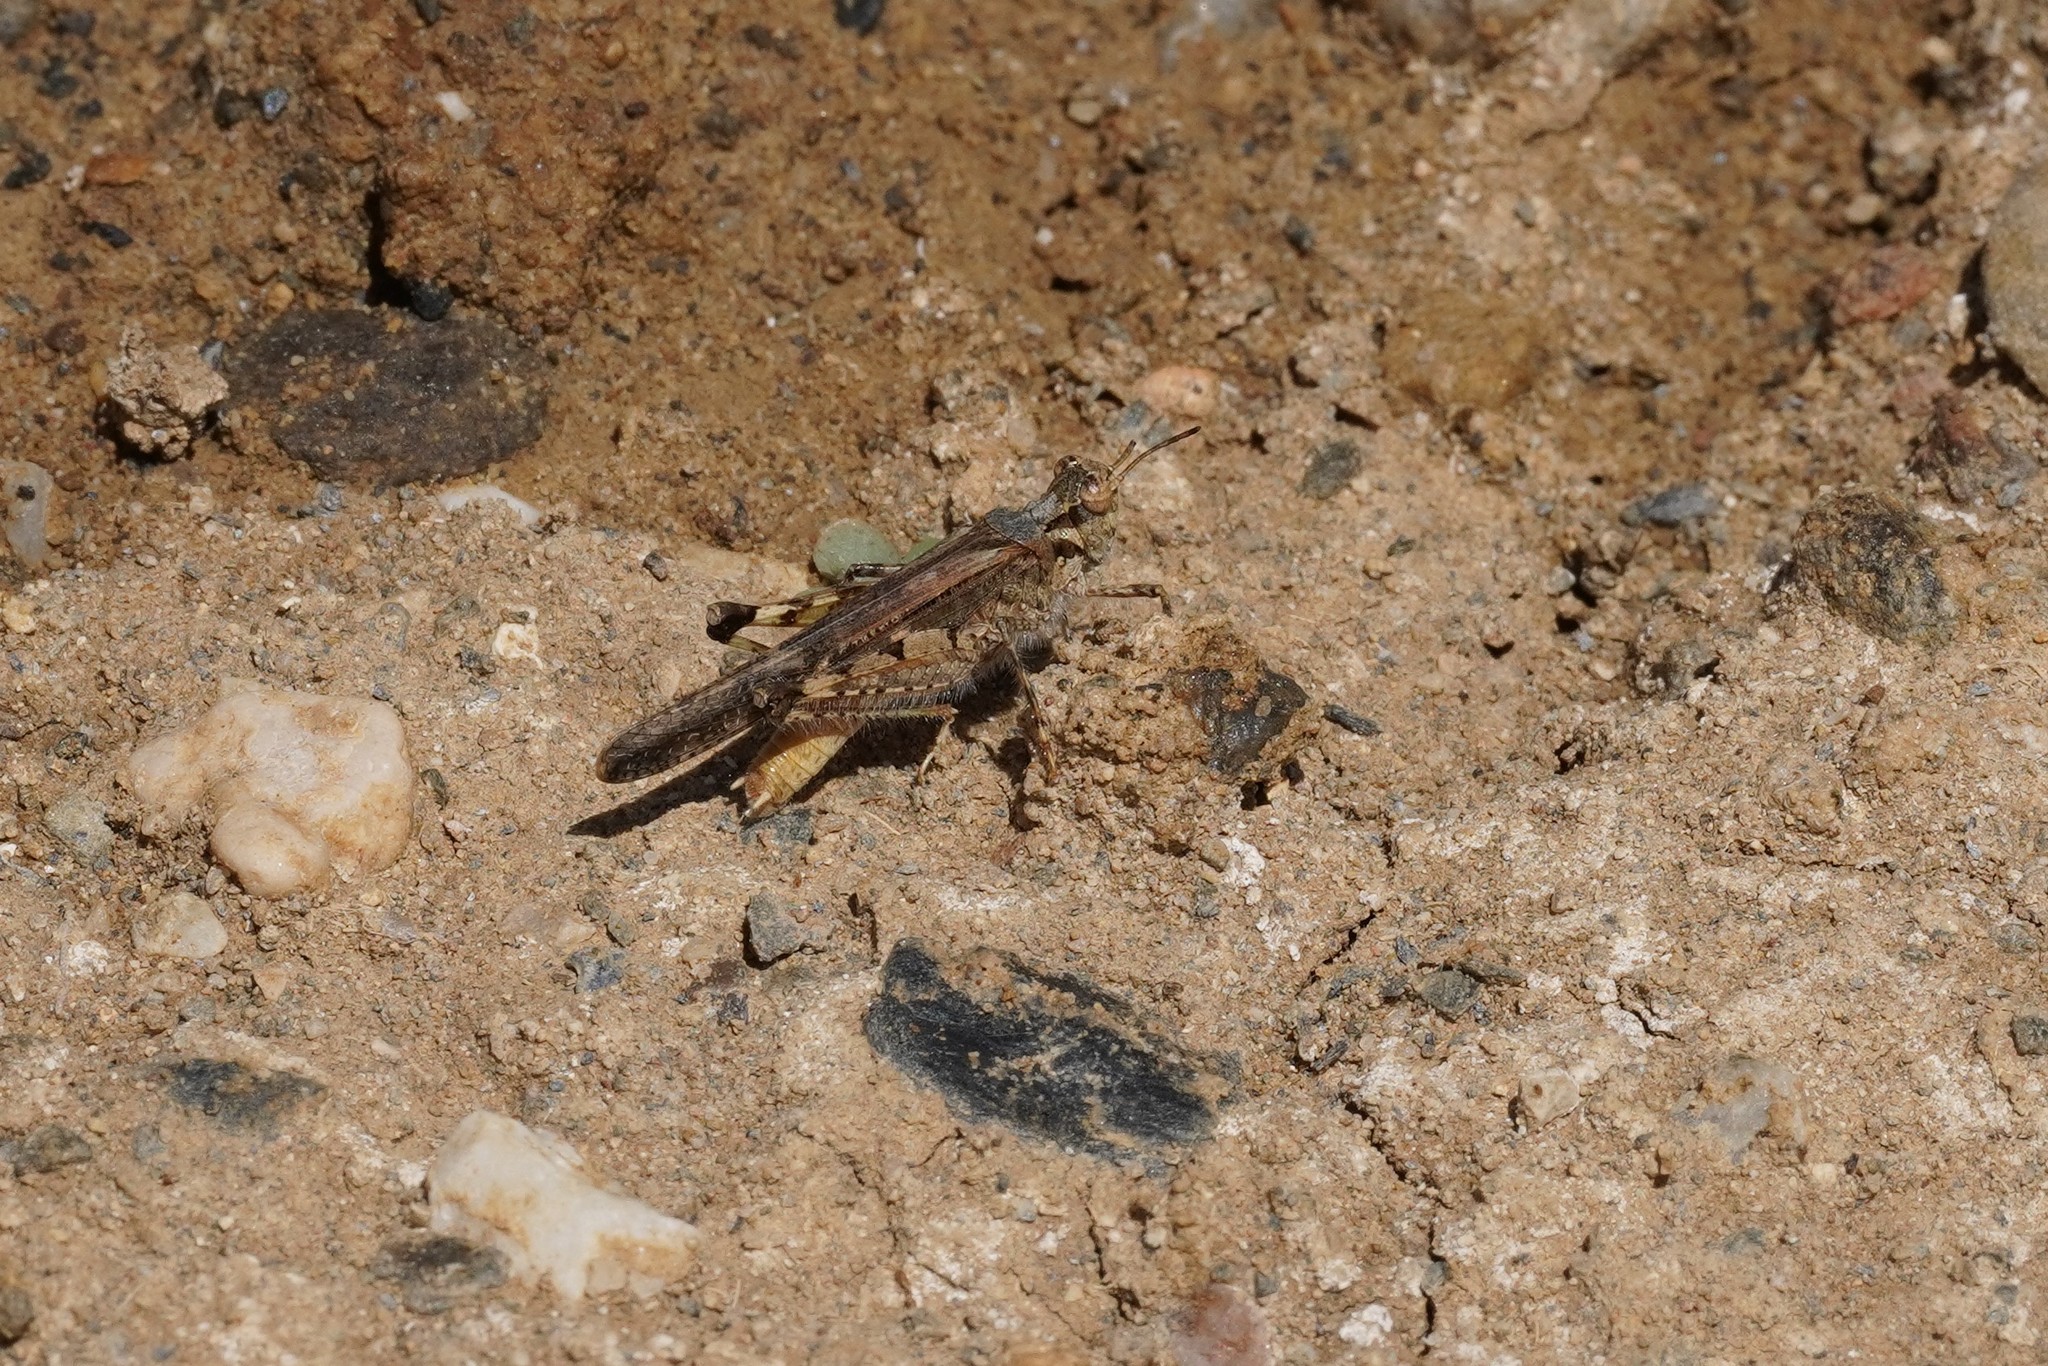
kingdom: Animalia
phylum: Arthropoda
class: Insecta
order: Orthoptera
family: Acrididae
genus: Acrotylus
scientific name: Acrotylus patruelis
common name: Slender burrowing grasshopper
